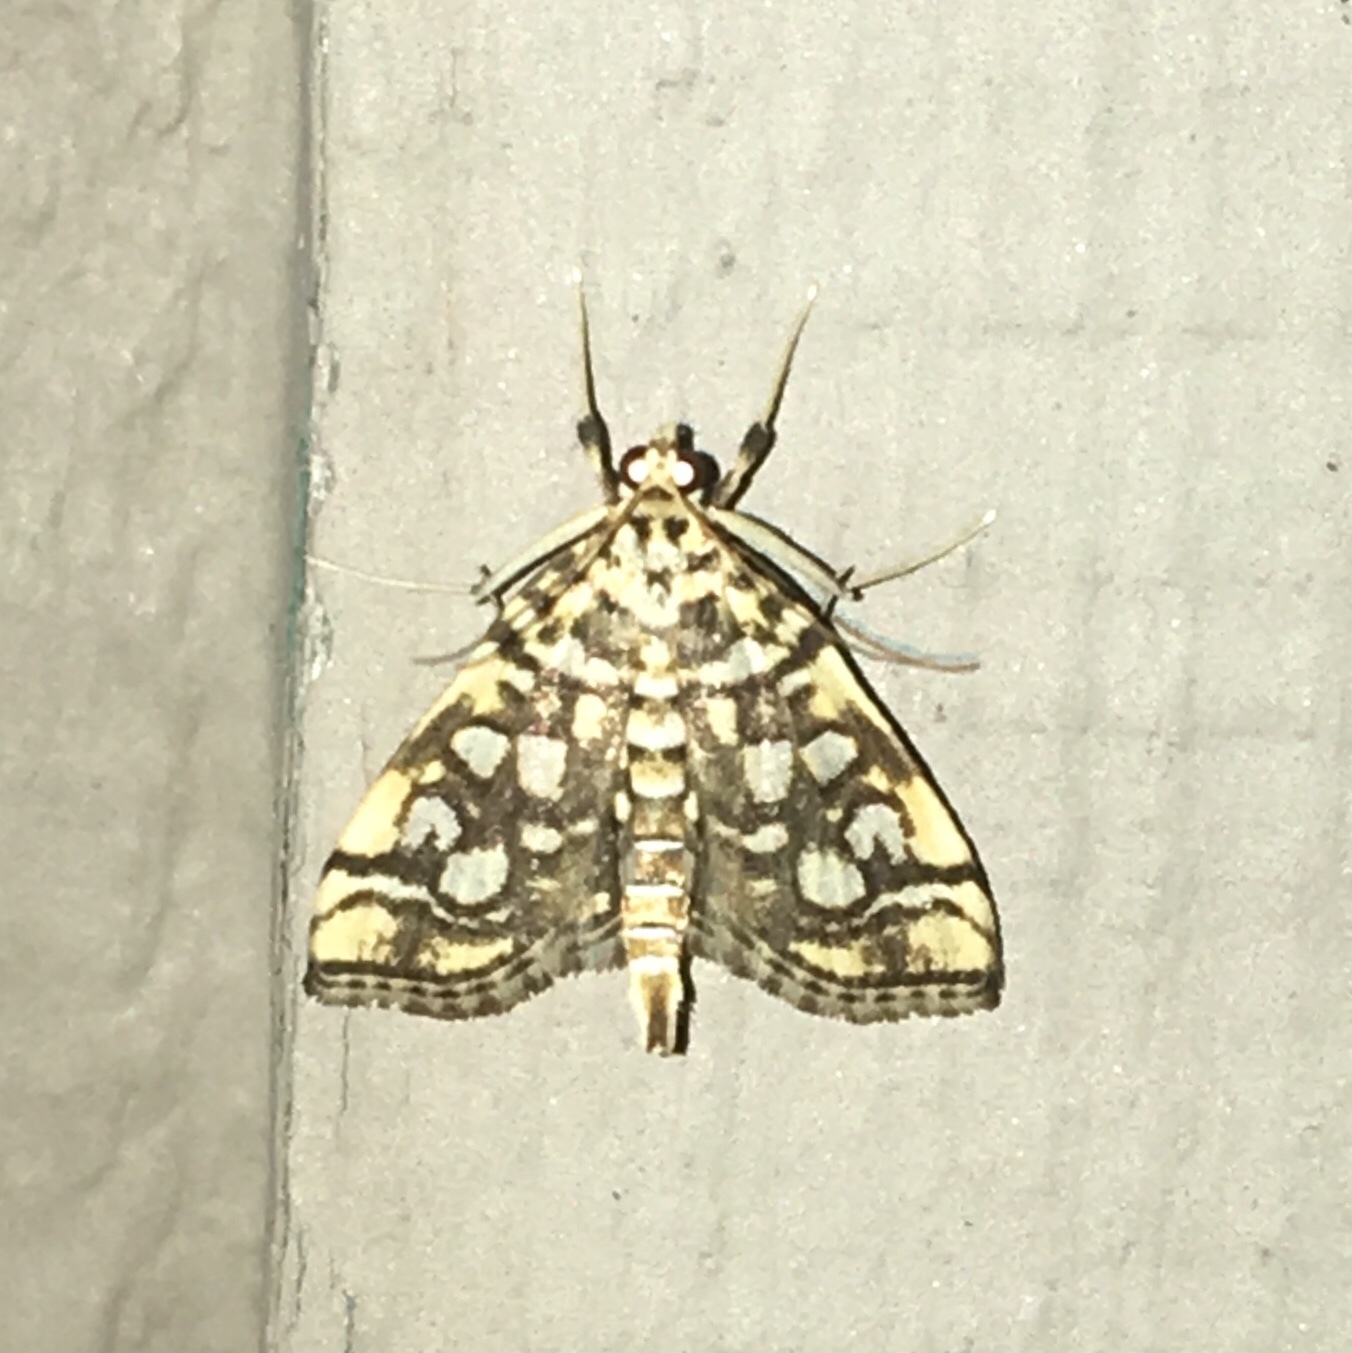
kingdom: Animalia
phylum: Arthropoda
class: Insecta
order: Lepidoptera
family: Crambidae
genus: Lygropia
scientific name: Lygropia rivulalis
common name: Bog lygropia moth
